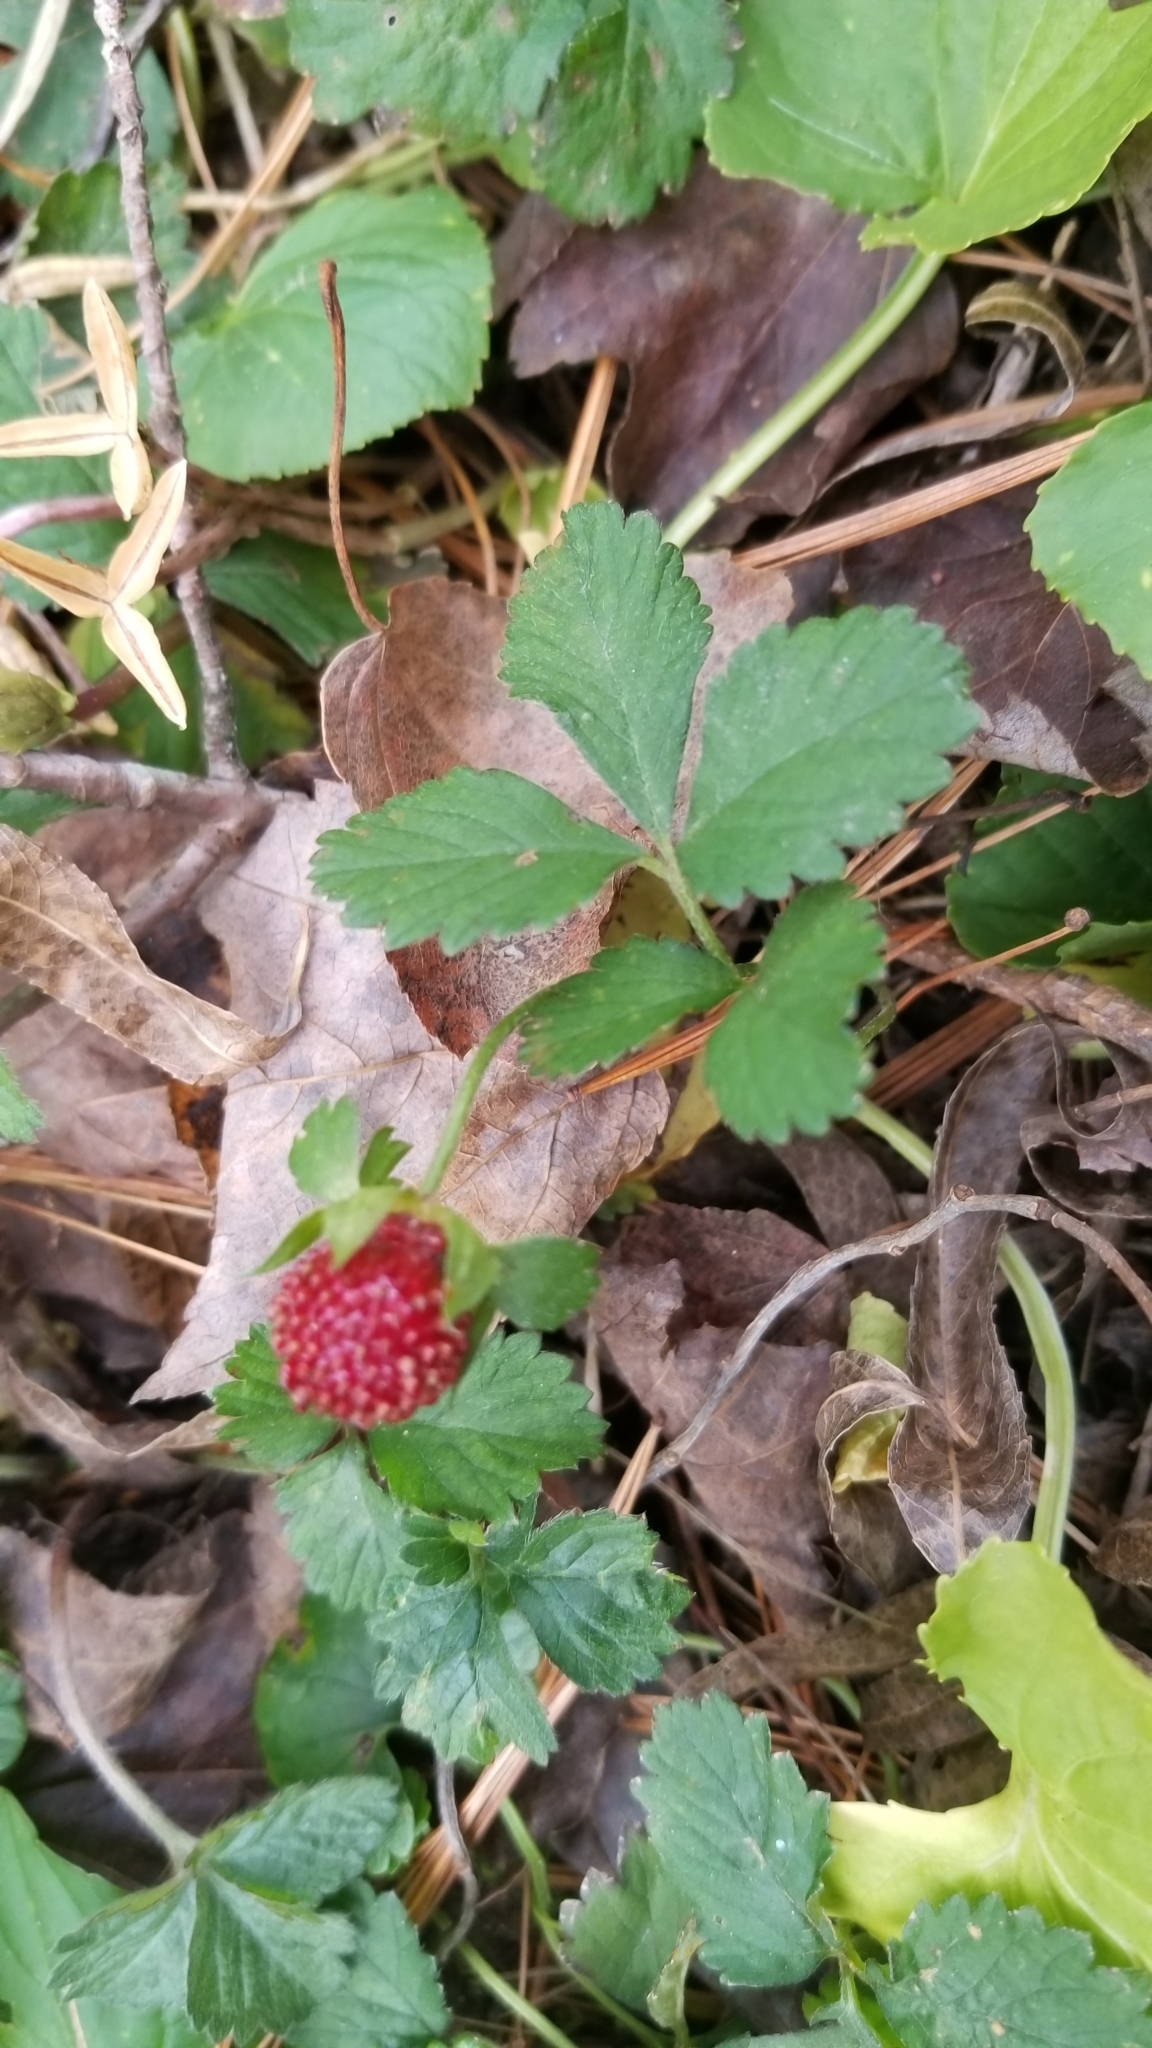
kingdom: Plantae
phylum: Tracheophyta
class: Magnoliopsida
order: Rosales
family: Rosaceae
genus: Potentilla
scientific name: Potentilla indica
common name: Yellow-flowered strawberry
